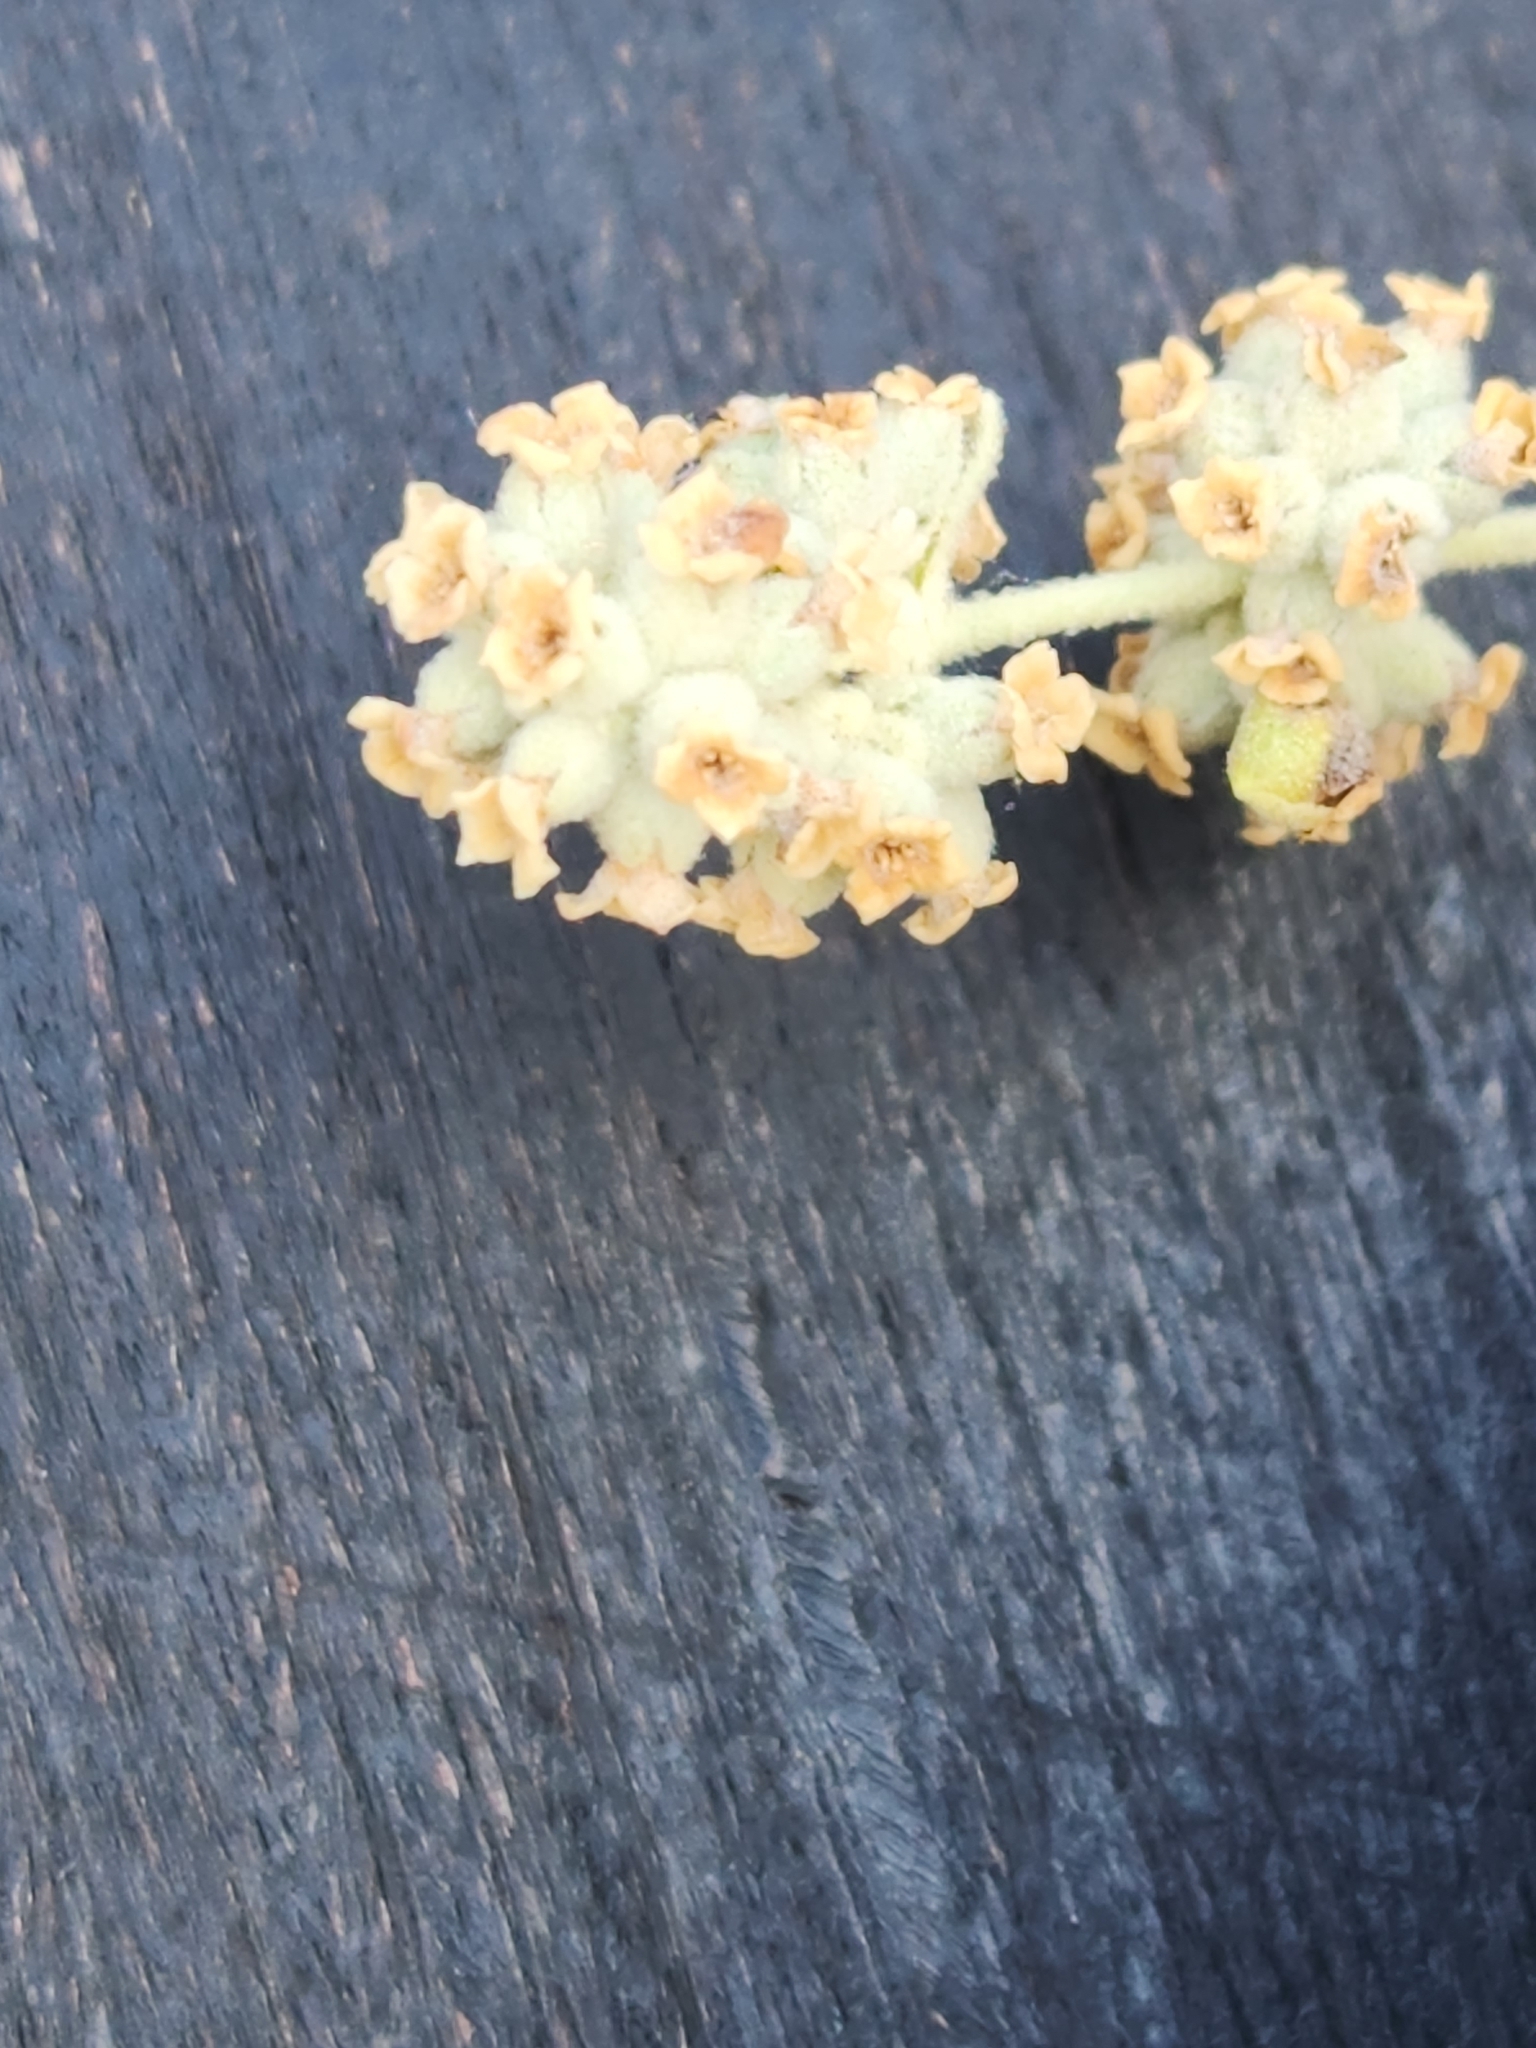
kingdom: Plantae
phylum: Tracheophyta
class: Magnoliopsida
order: Lamiales
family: Scrophulariaceae
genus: Buddleja
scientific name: Buddleja racemosa
